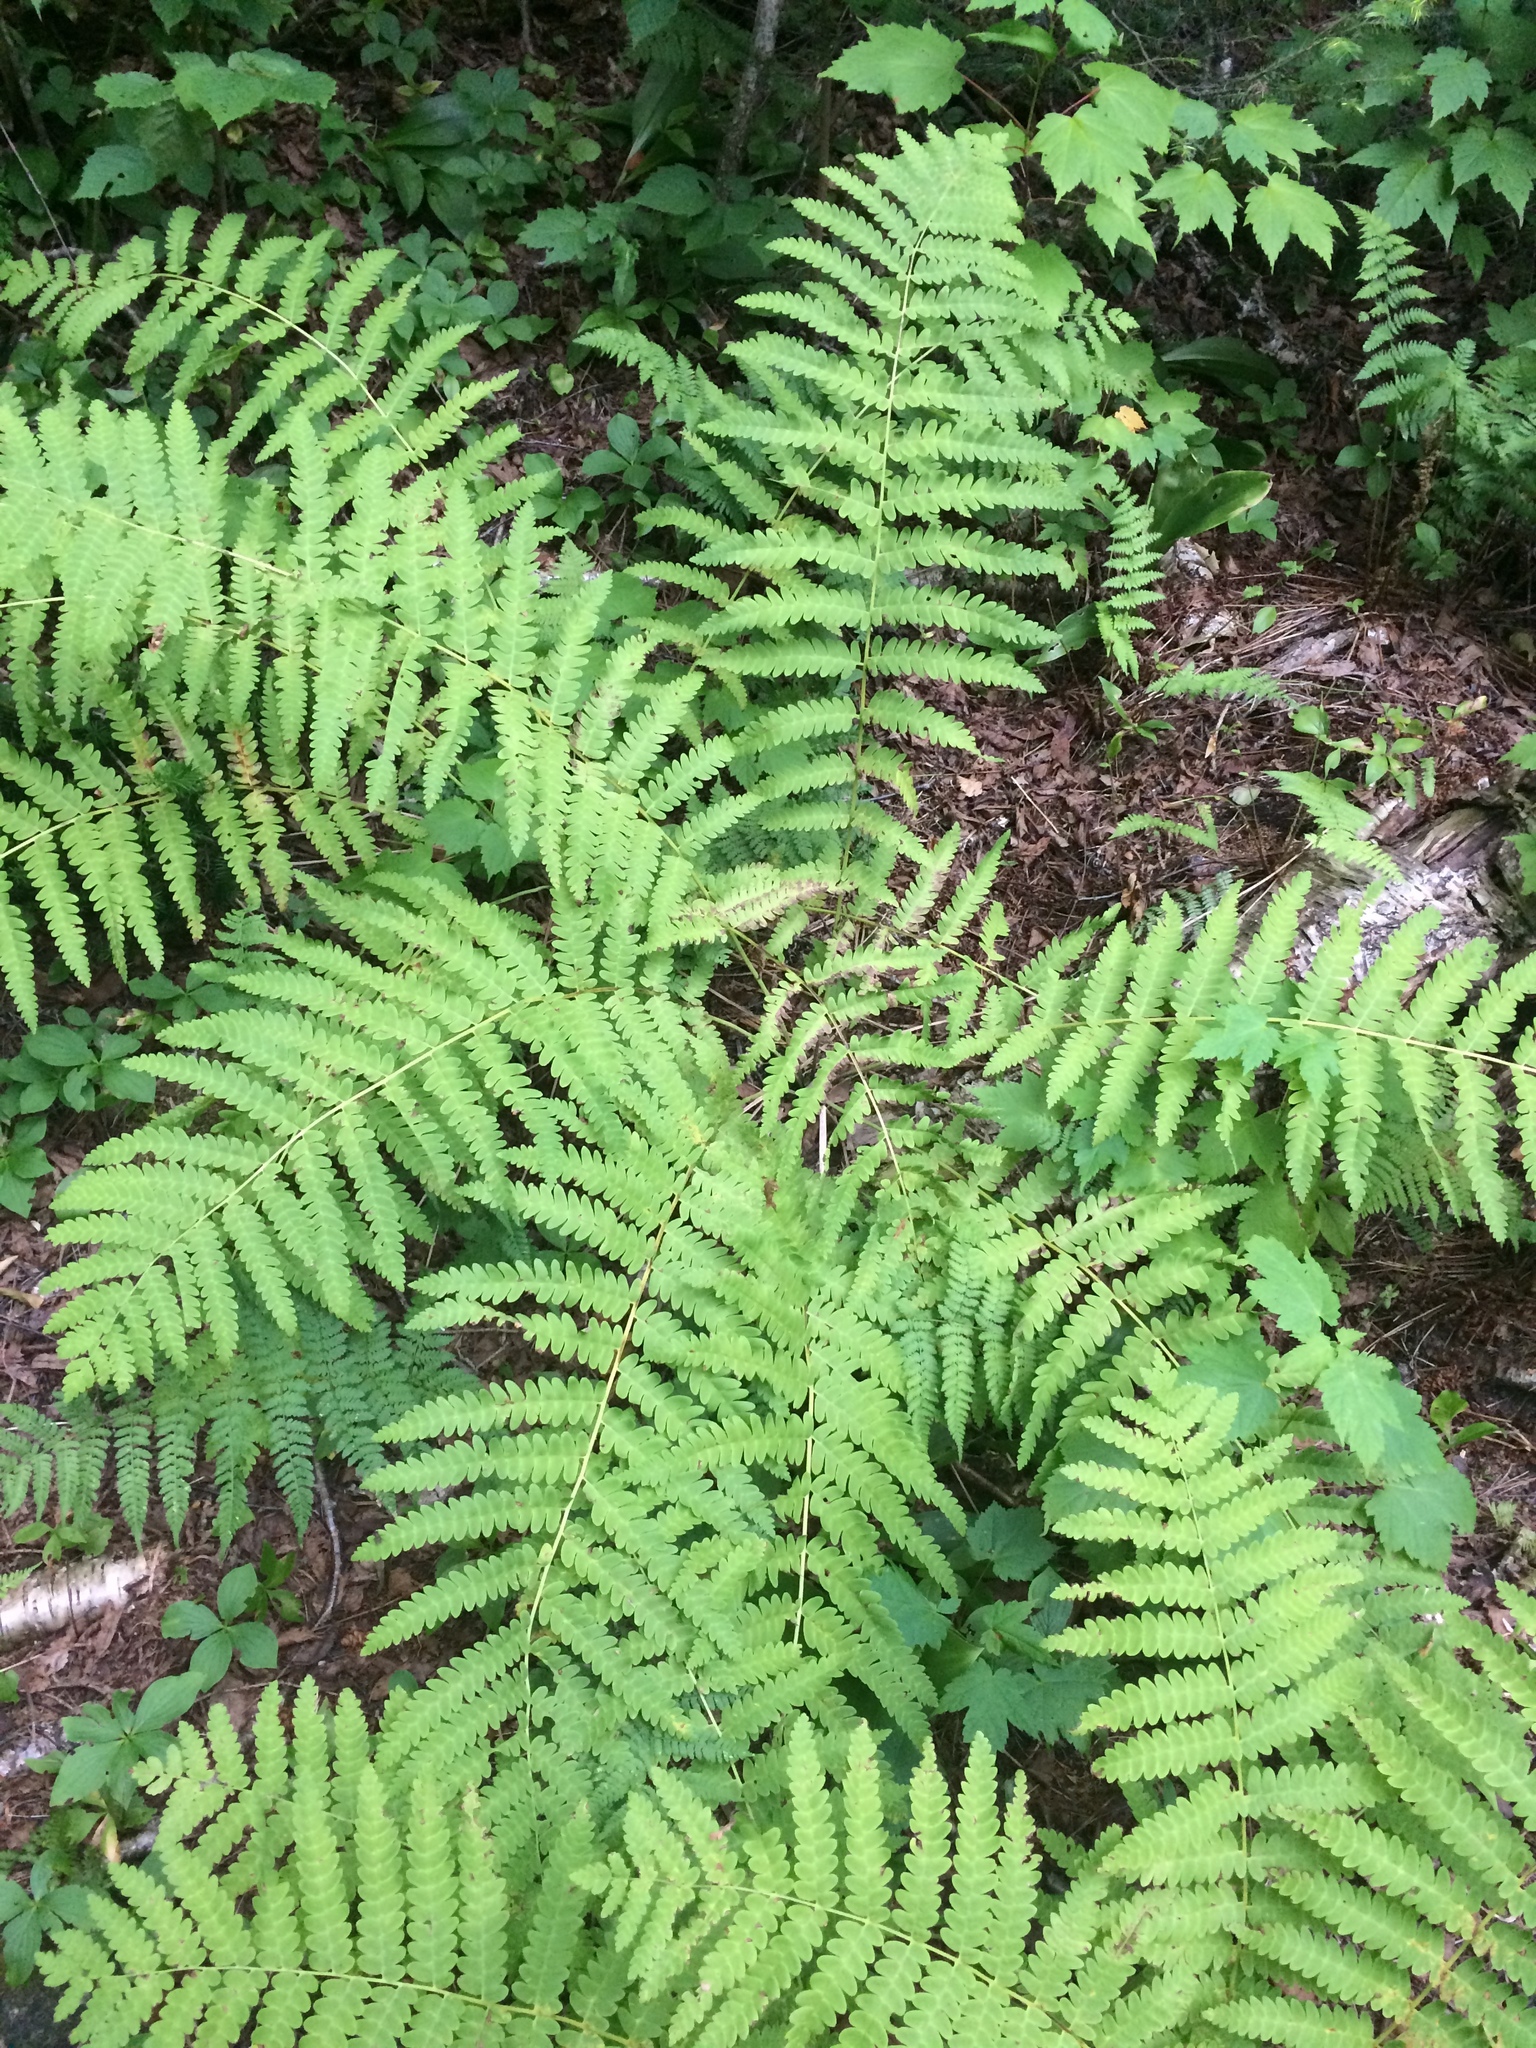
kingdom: Plantae
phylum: Tracheophyta
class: Polypodiopsida
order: Osmundales
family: Osmundaceae
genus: Claytosmunda
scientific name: Claytosmunda claytoniana
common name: Clayton's fern
